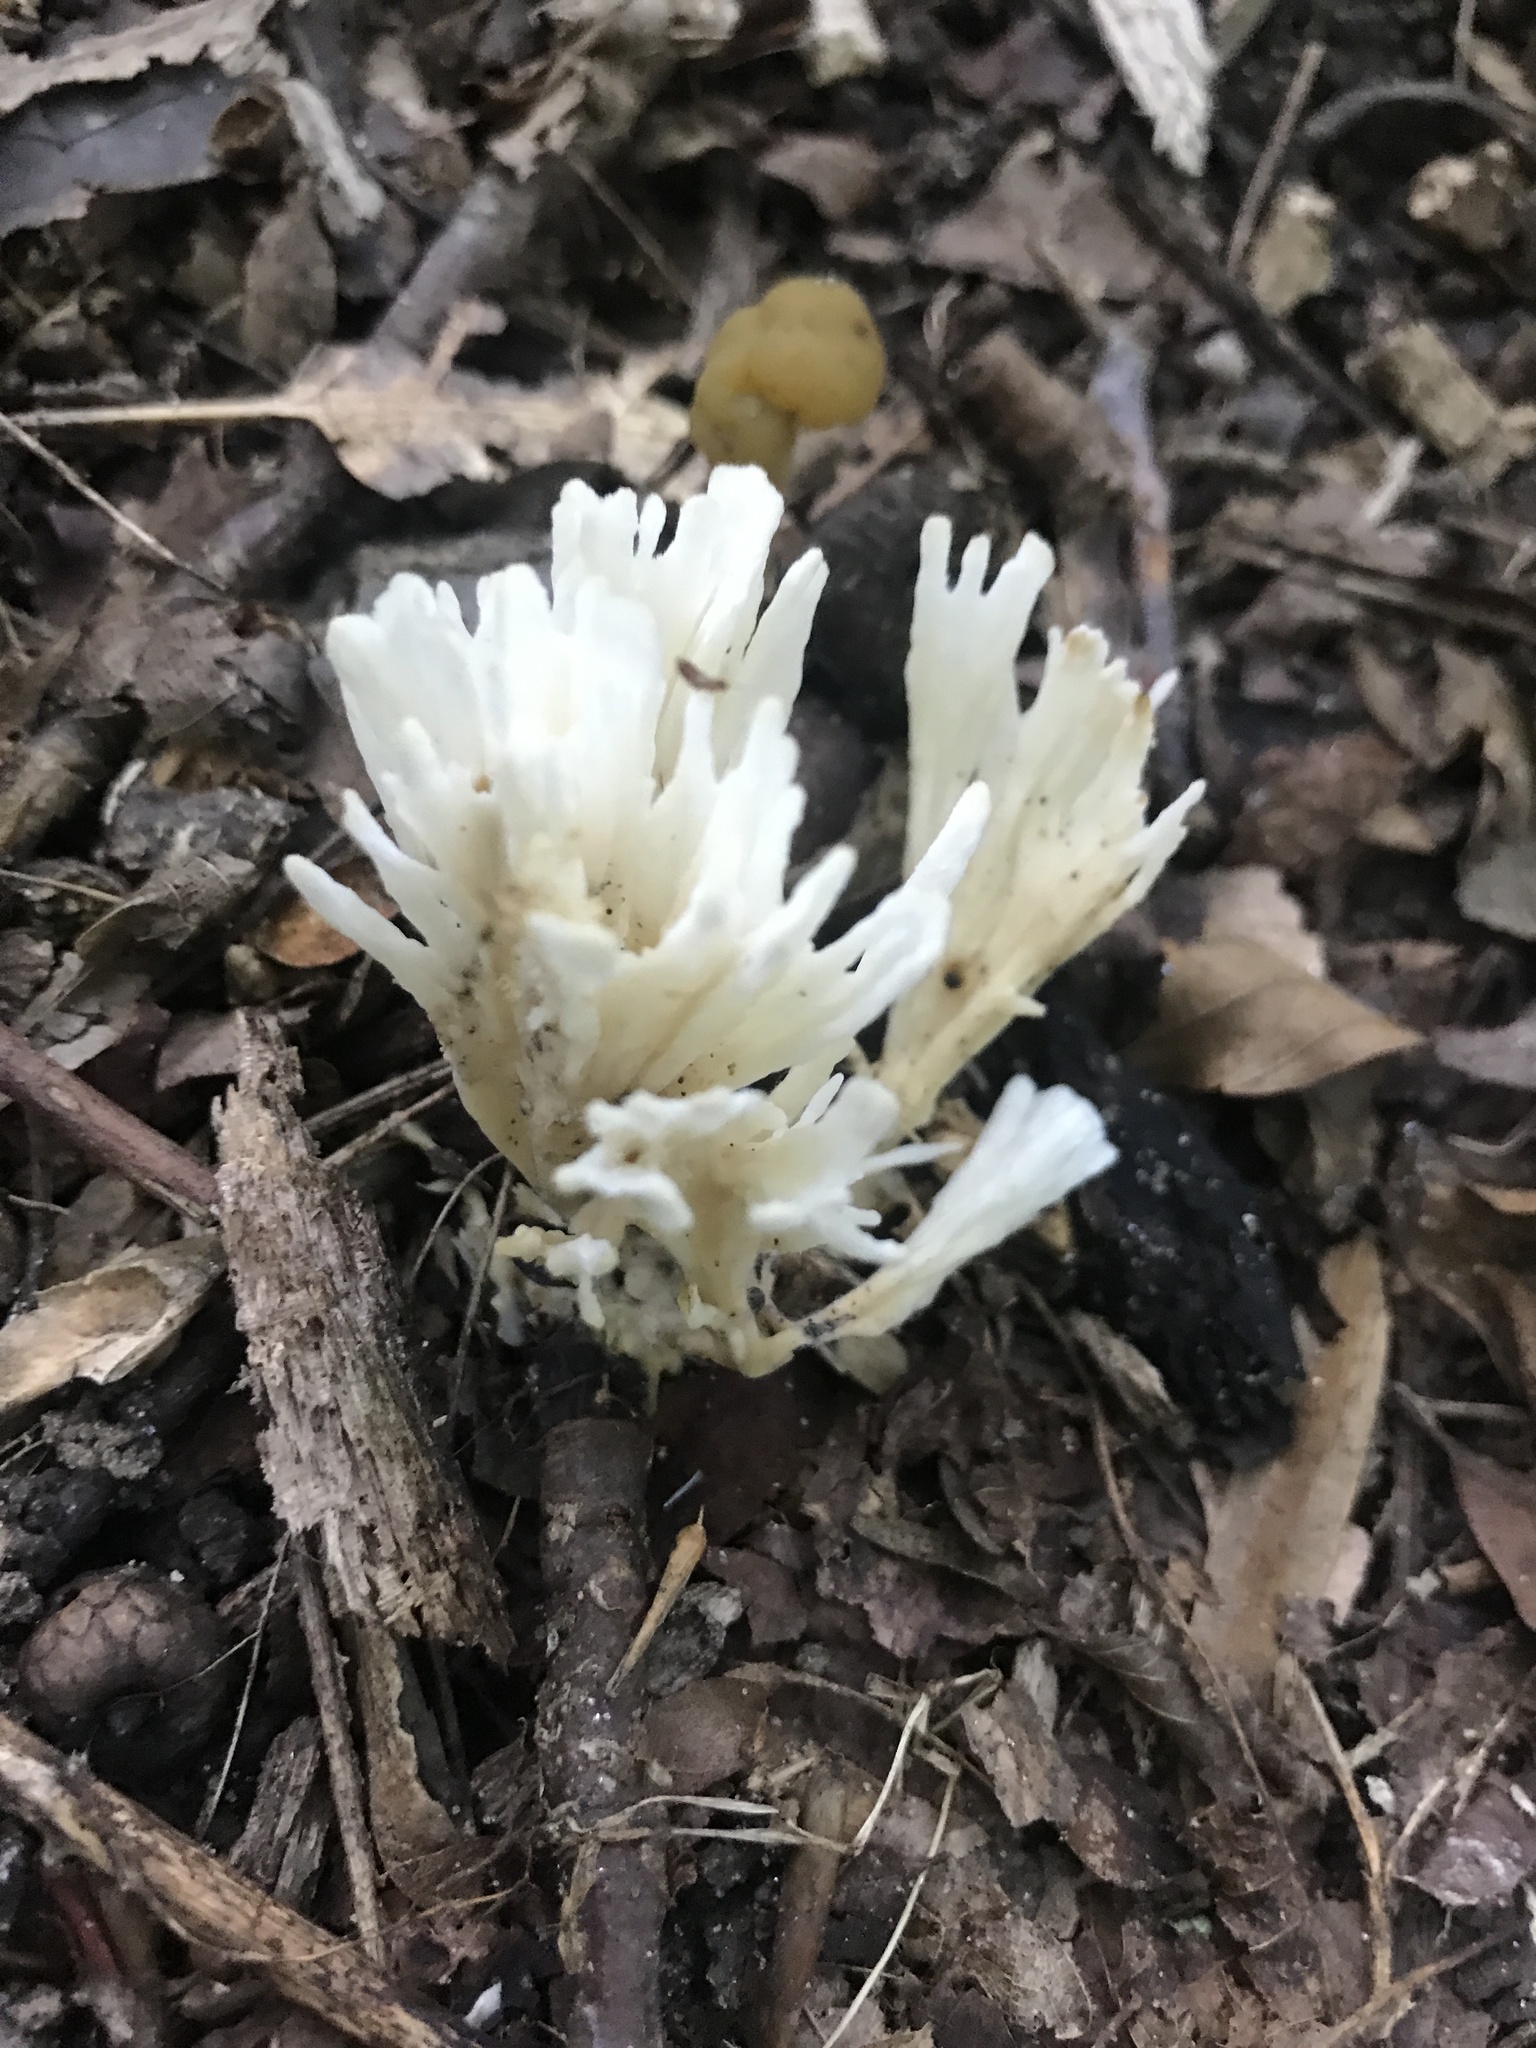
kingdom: Fungi
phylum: Basidiomycota
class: Agaricomycetes
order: Sebacinales
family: Sebacinaceae
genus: Sebacina
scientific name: Sebacina schweinitzii
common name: Jellied false coral fungus
